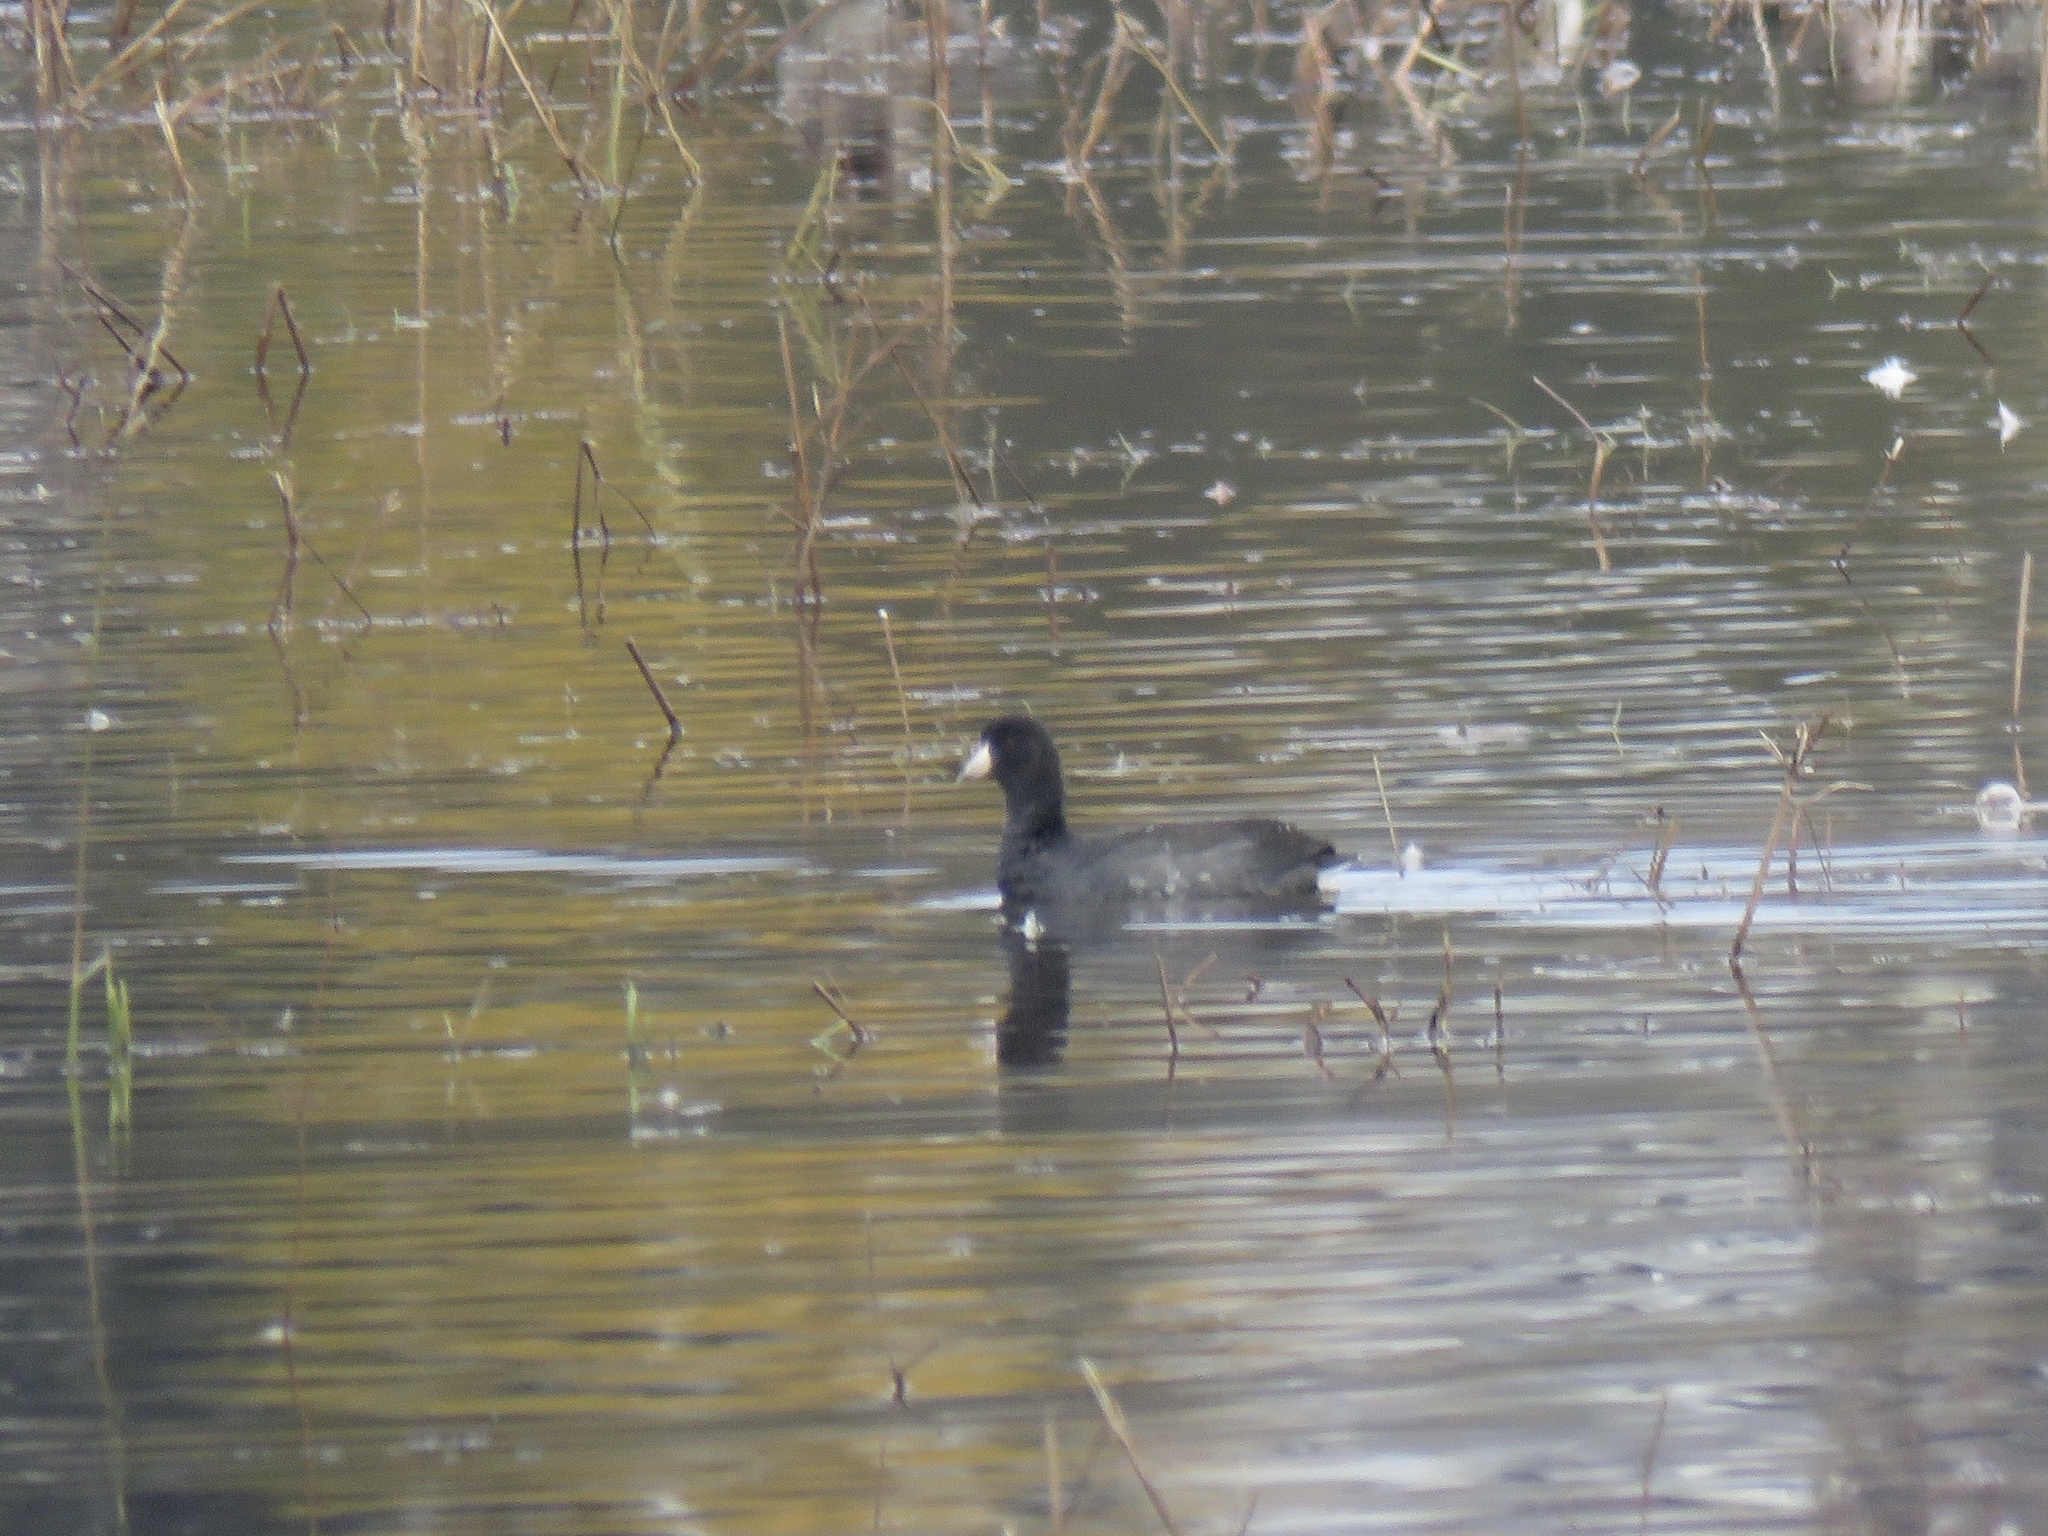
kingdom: Animalia
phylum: Chordata
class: Aves
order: Gruiformes
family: Rallidae
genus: Fulica
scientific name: Fulica americana
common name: American coot
